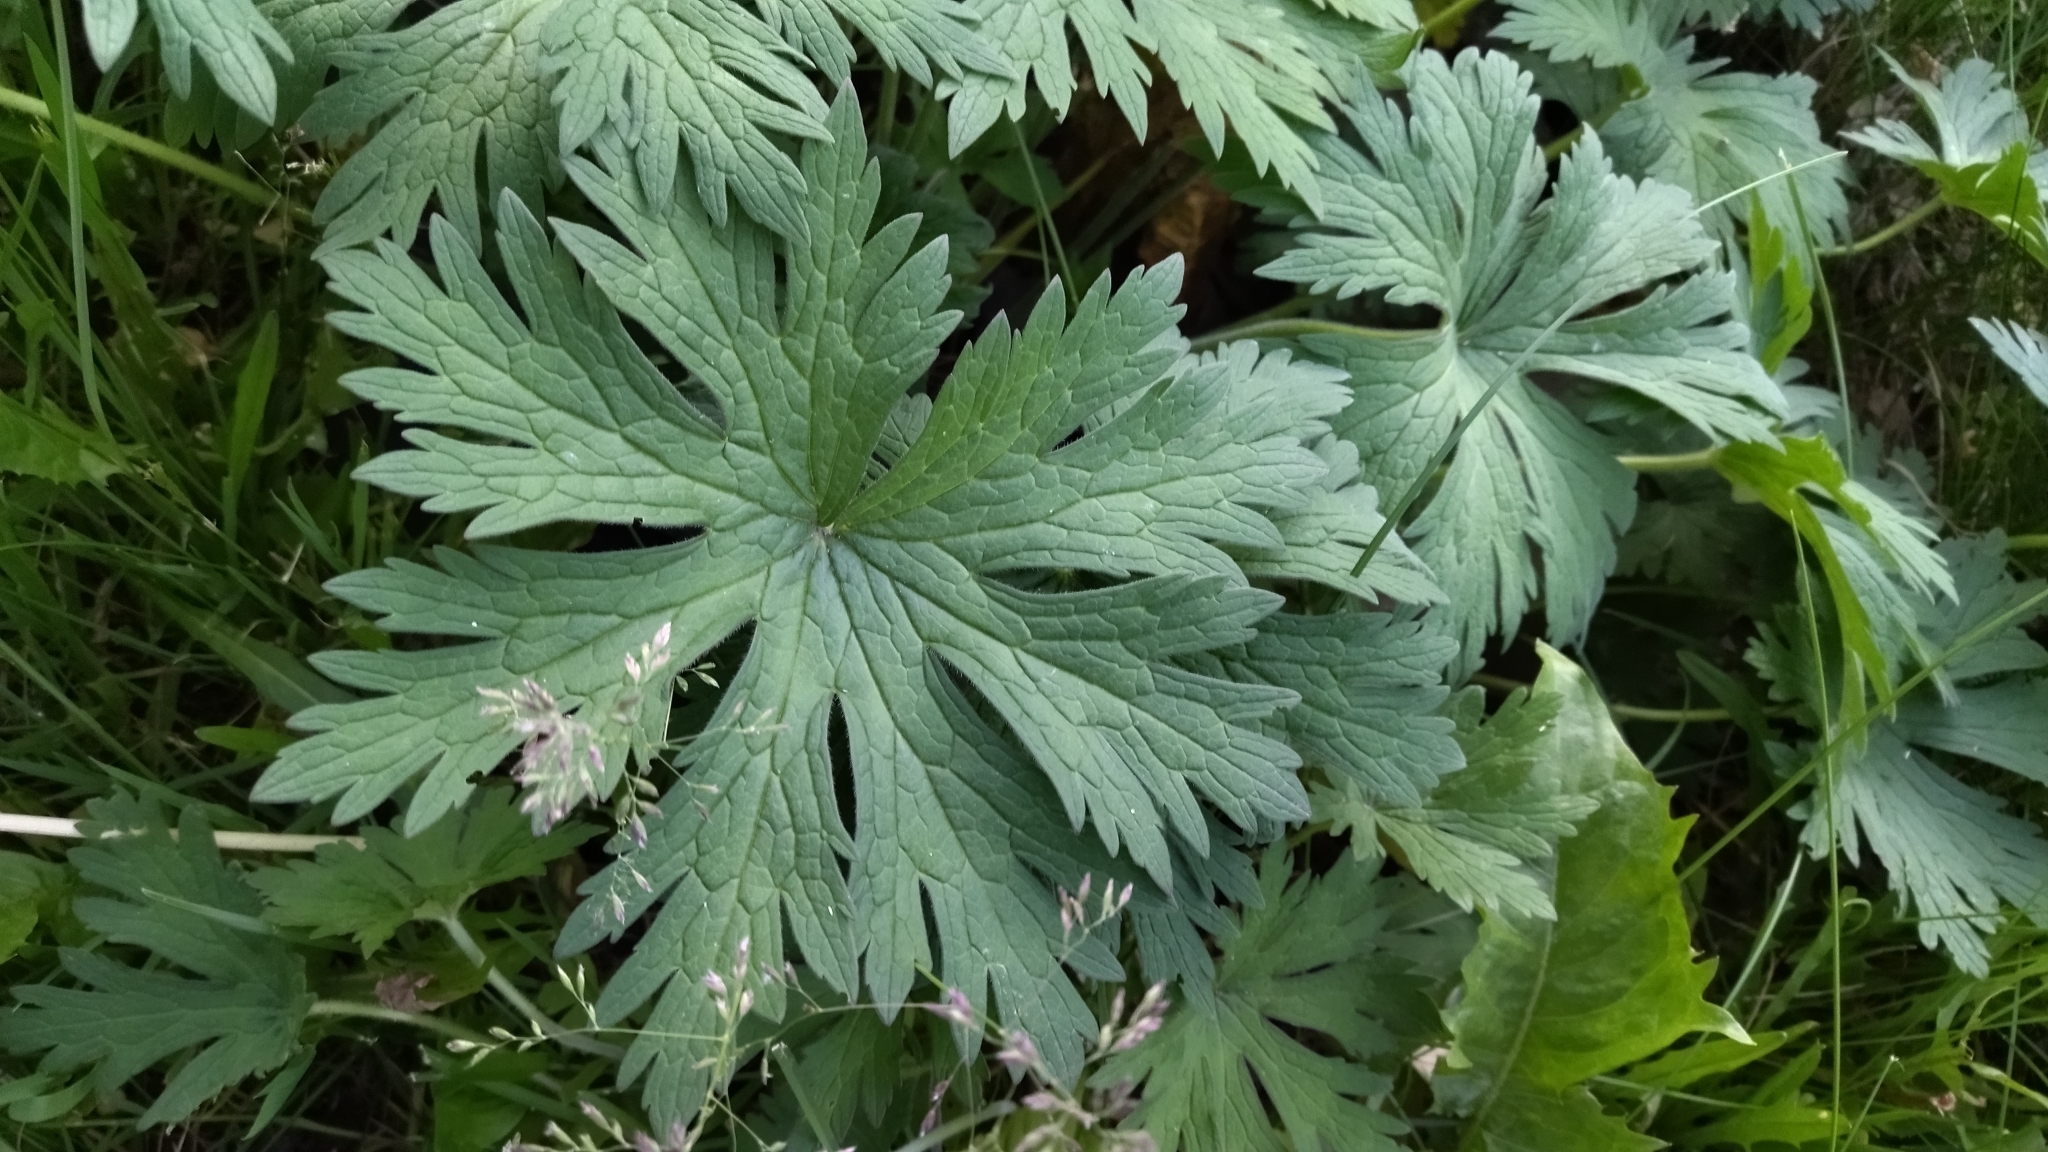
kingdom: Plantae
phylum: Tracheophyta
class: Magnoliopsida
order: Geraniales
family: Geraniaceae
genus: Geranium
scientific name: Geranium pratense
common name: Meadow crane's-bill
